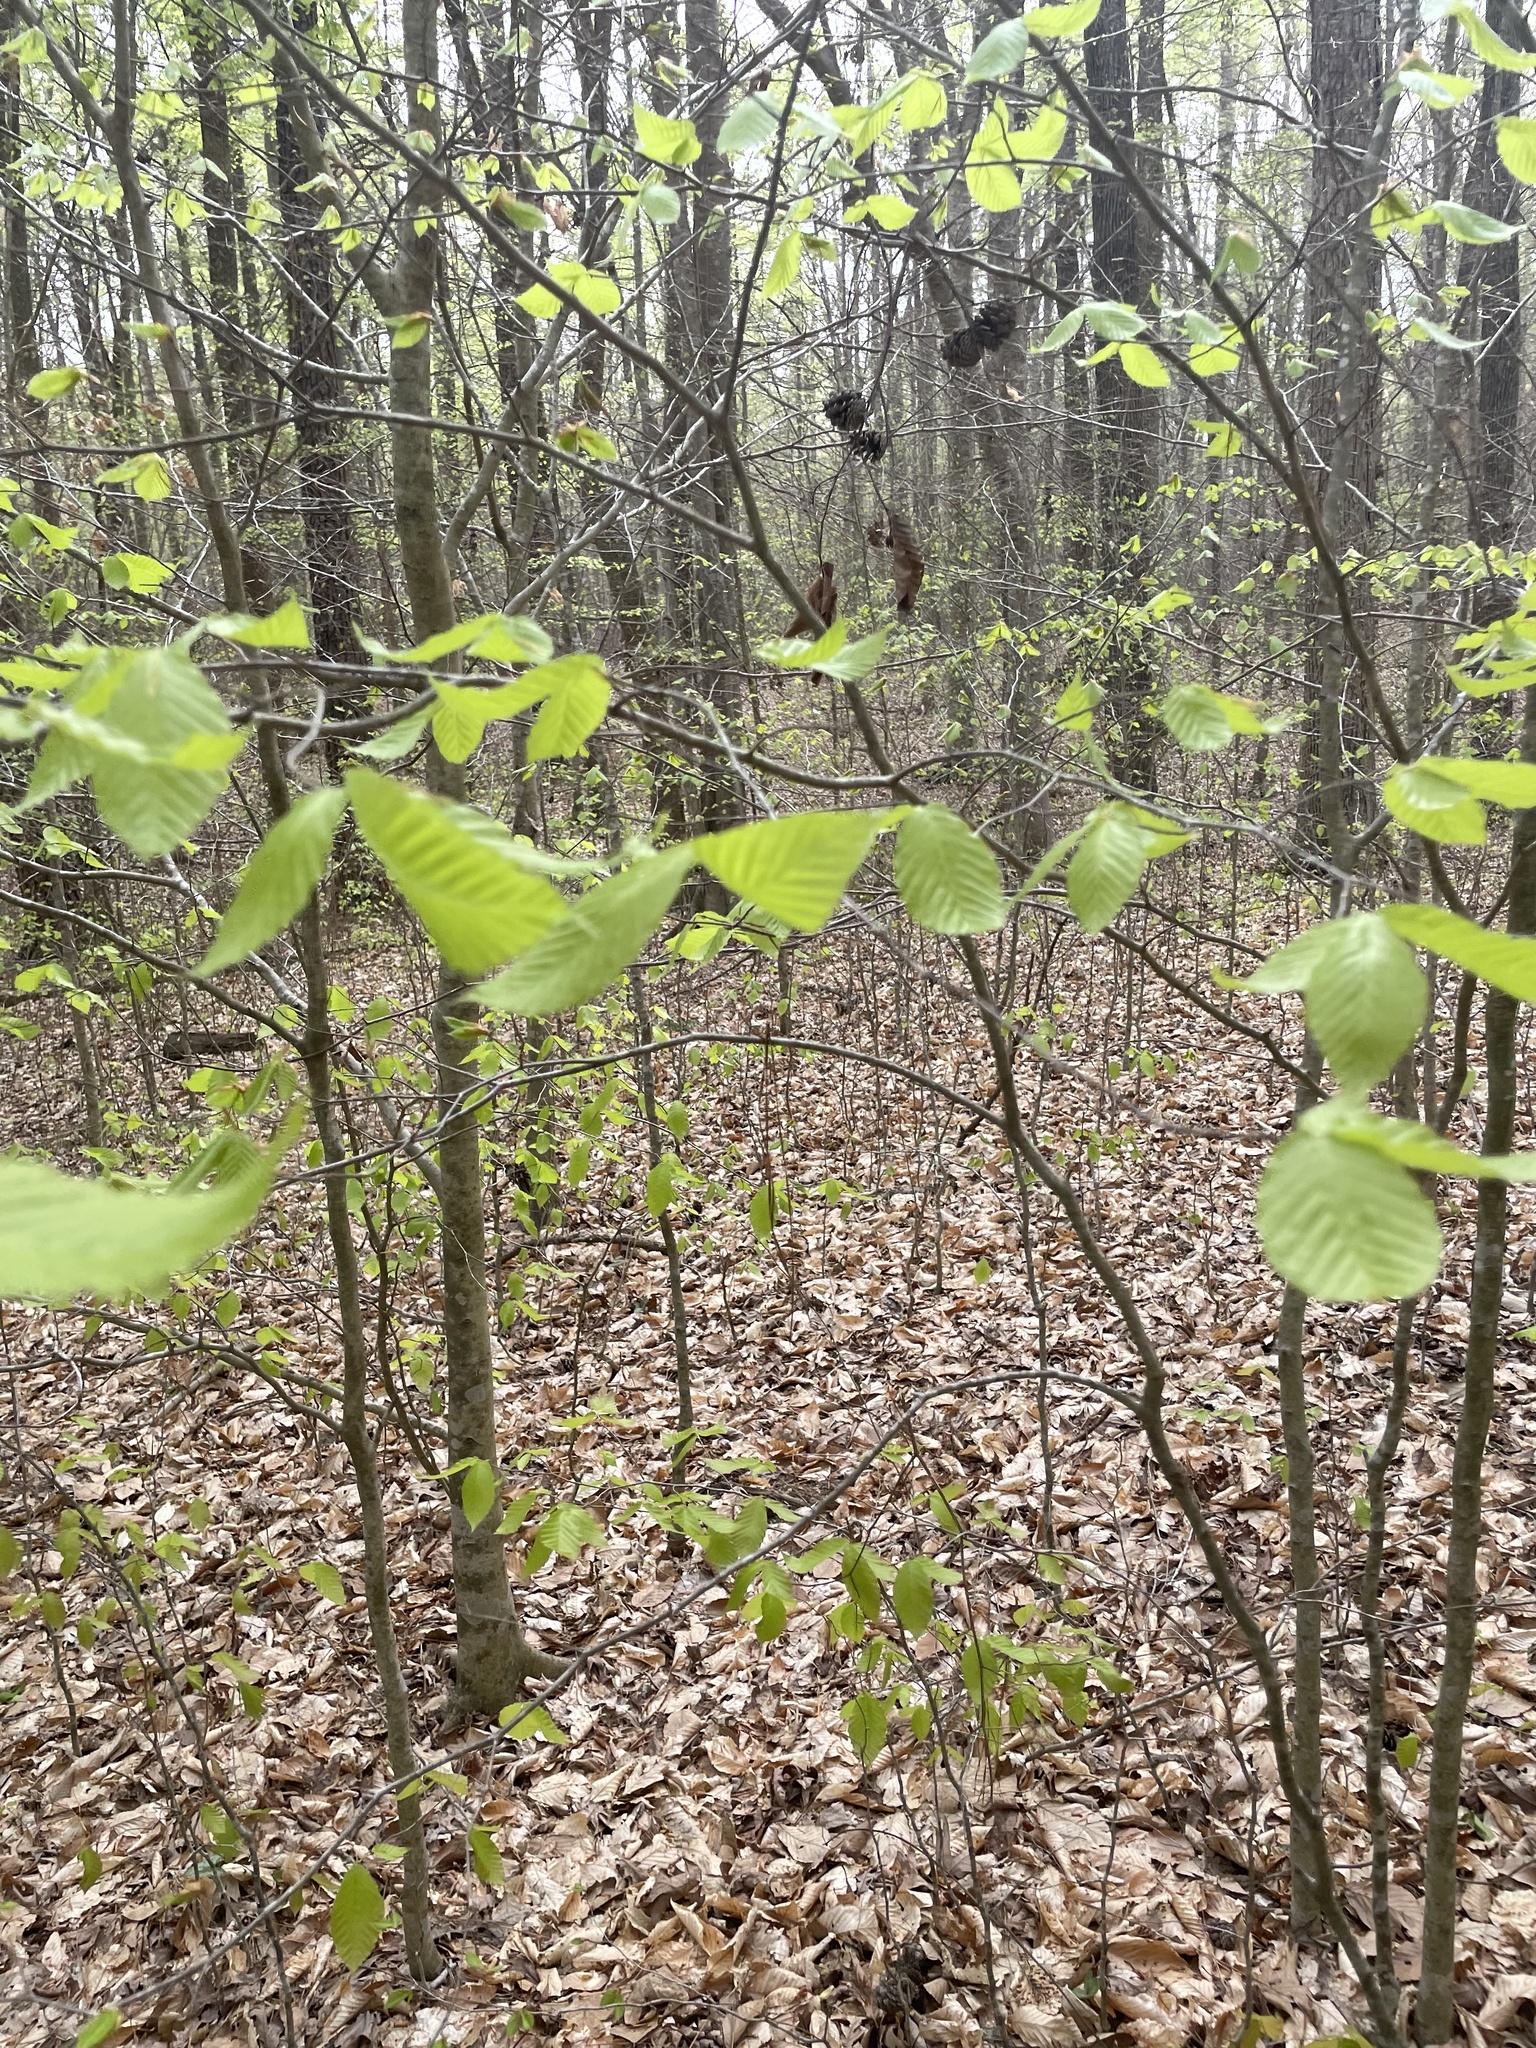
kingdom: Plantae
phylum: Tracheophyta
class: Magnoliopsida
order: Fagales
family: Fagaceae
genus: Fagus
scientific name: Fagus grandifolia
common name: American beech
